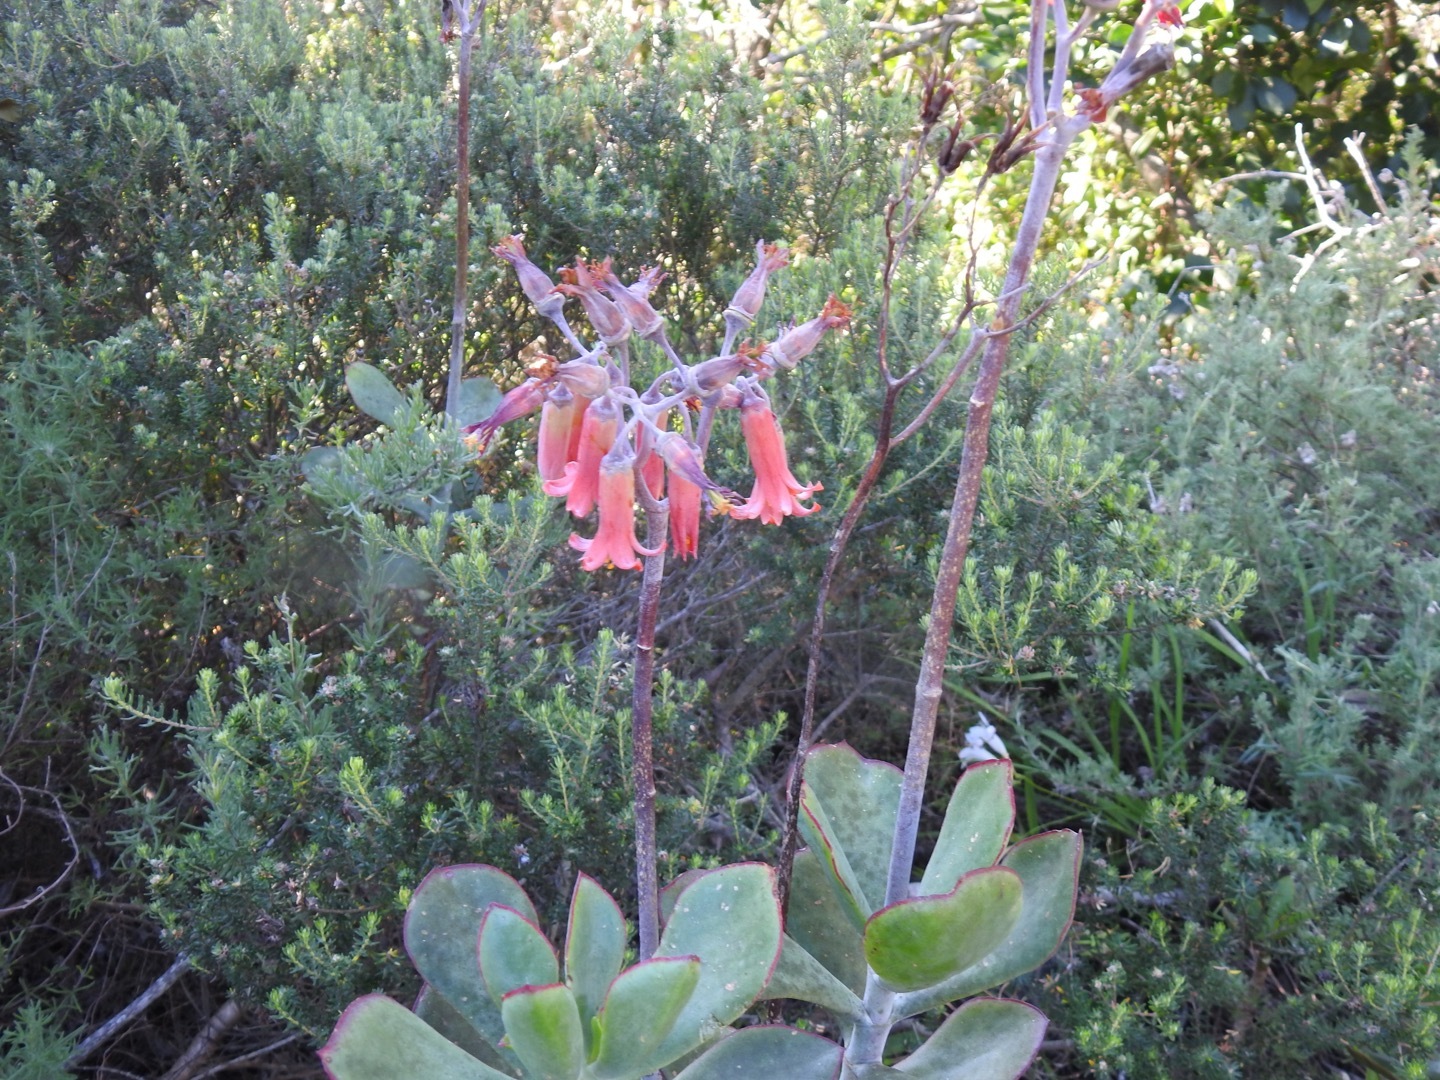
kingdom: Plantae
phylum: Tracheophyta
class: Magnoliopsida
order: Saxifragales
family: Crassulaceae
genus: Cotyledon
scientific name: Cotyledon orbiculata
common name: Pig's ear
